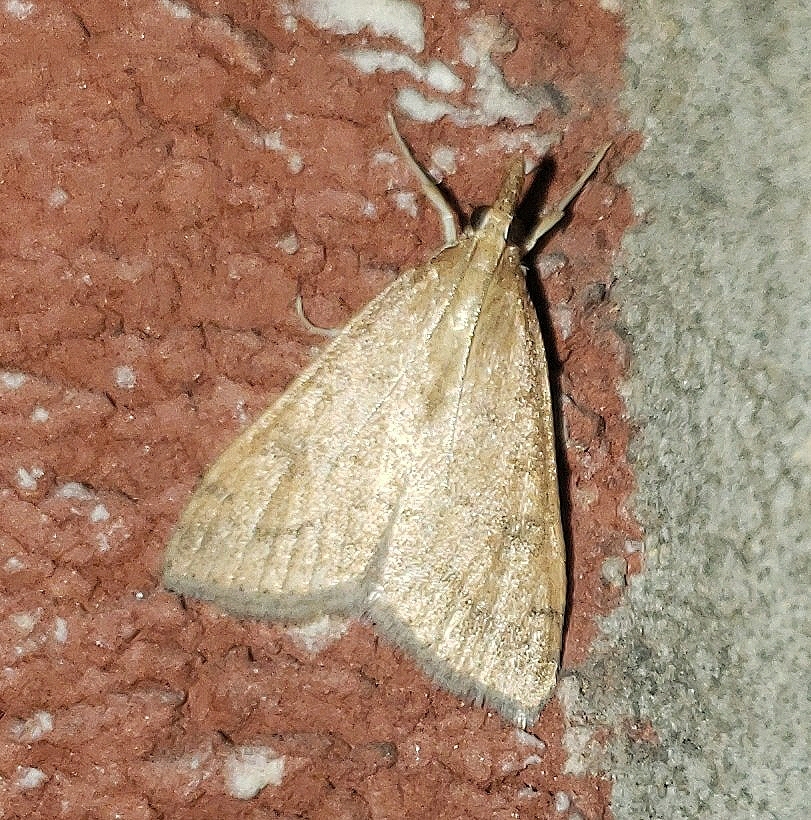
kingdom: Animalia
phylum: Arthropoda
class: Insecta
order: Lepidoptera
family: Crambidae
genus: Udea
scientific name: Udea rubigalis
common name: Celery leaftier moth
